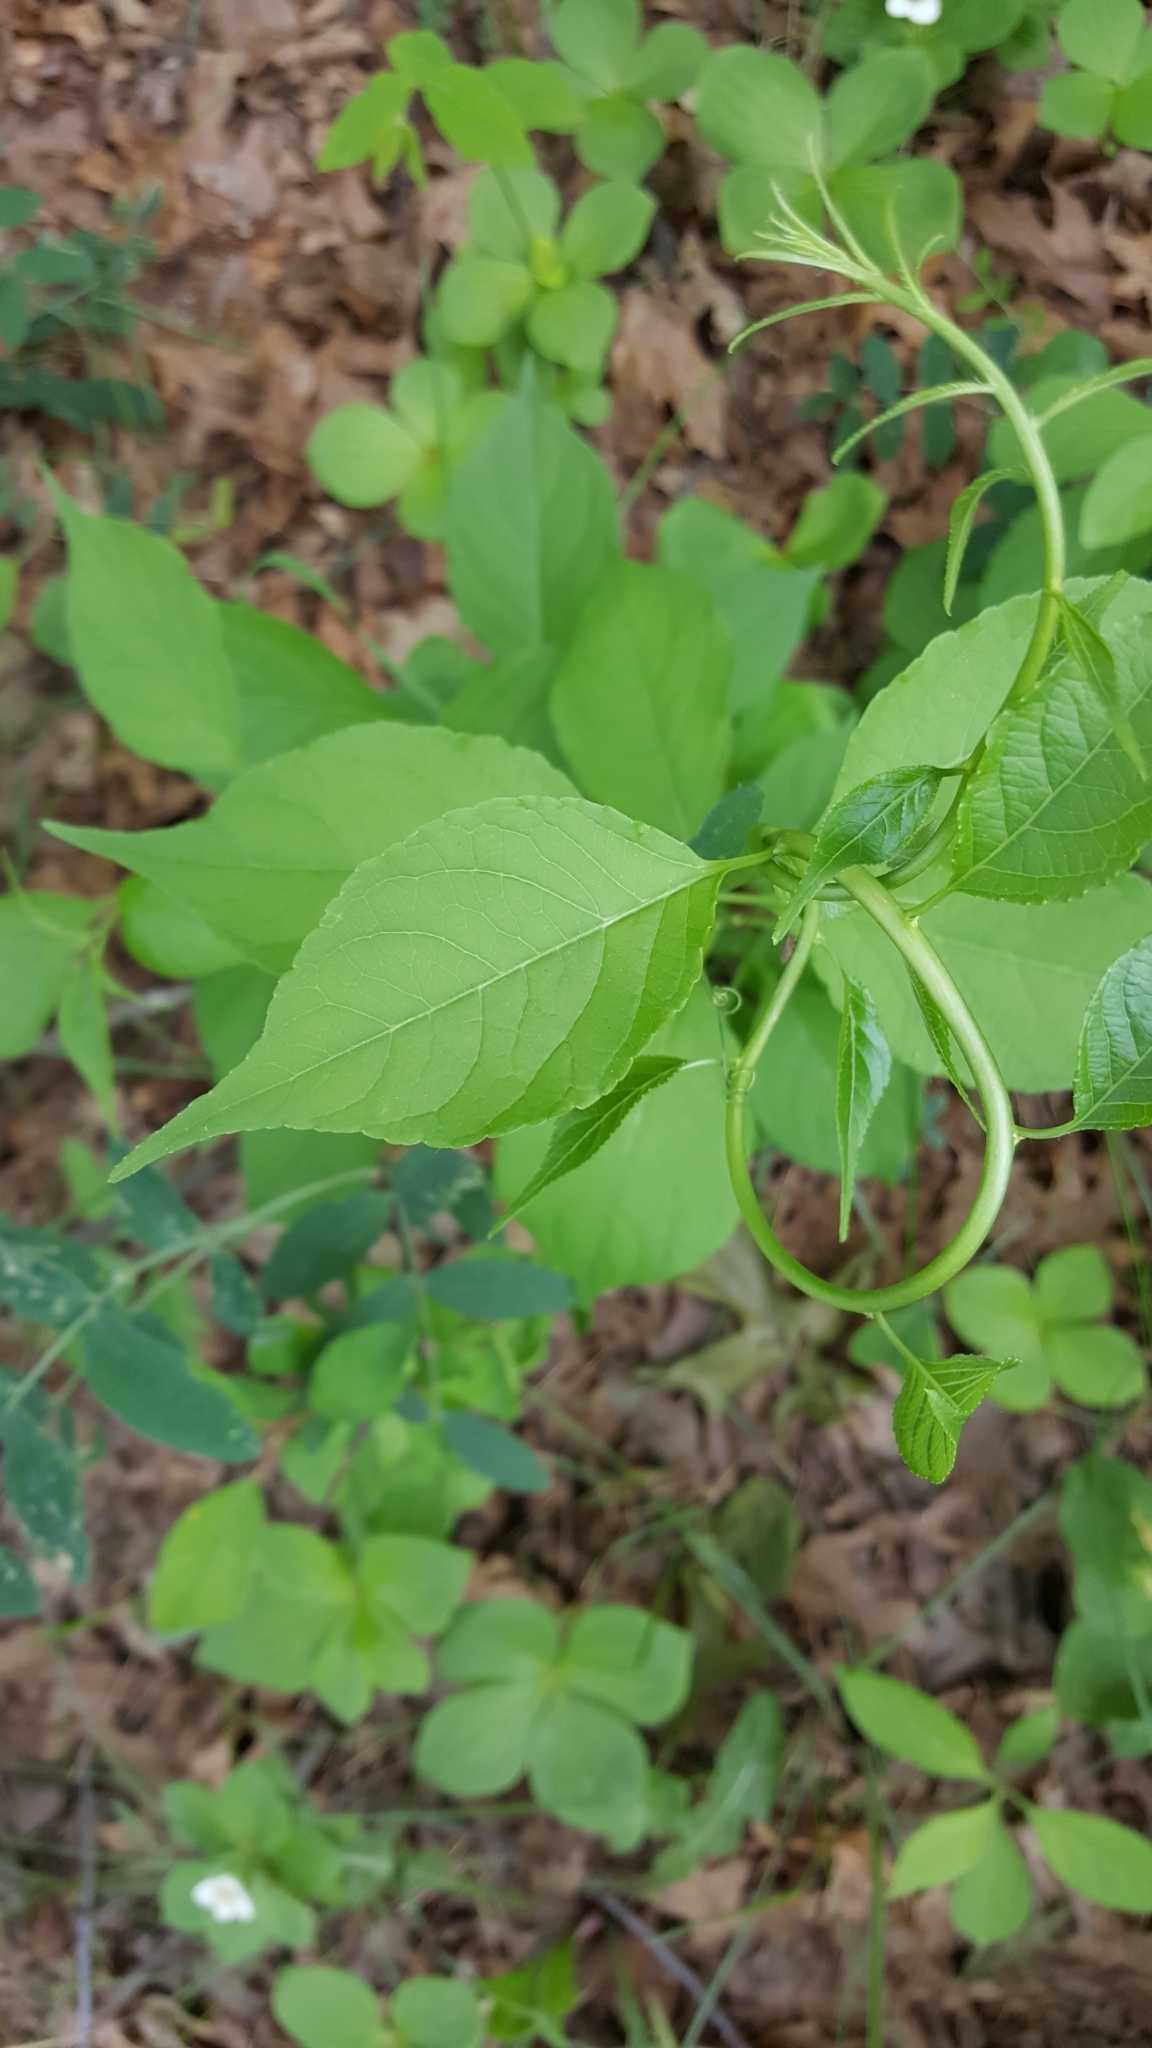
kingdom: Plantae
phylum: Tracheophyta
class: Magnoliopsida
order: Celastrales
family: Celastraceae
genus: Celastrus
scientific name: Celastrus scandens
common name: American bittersweet
